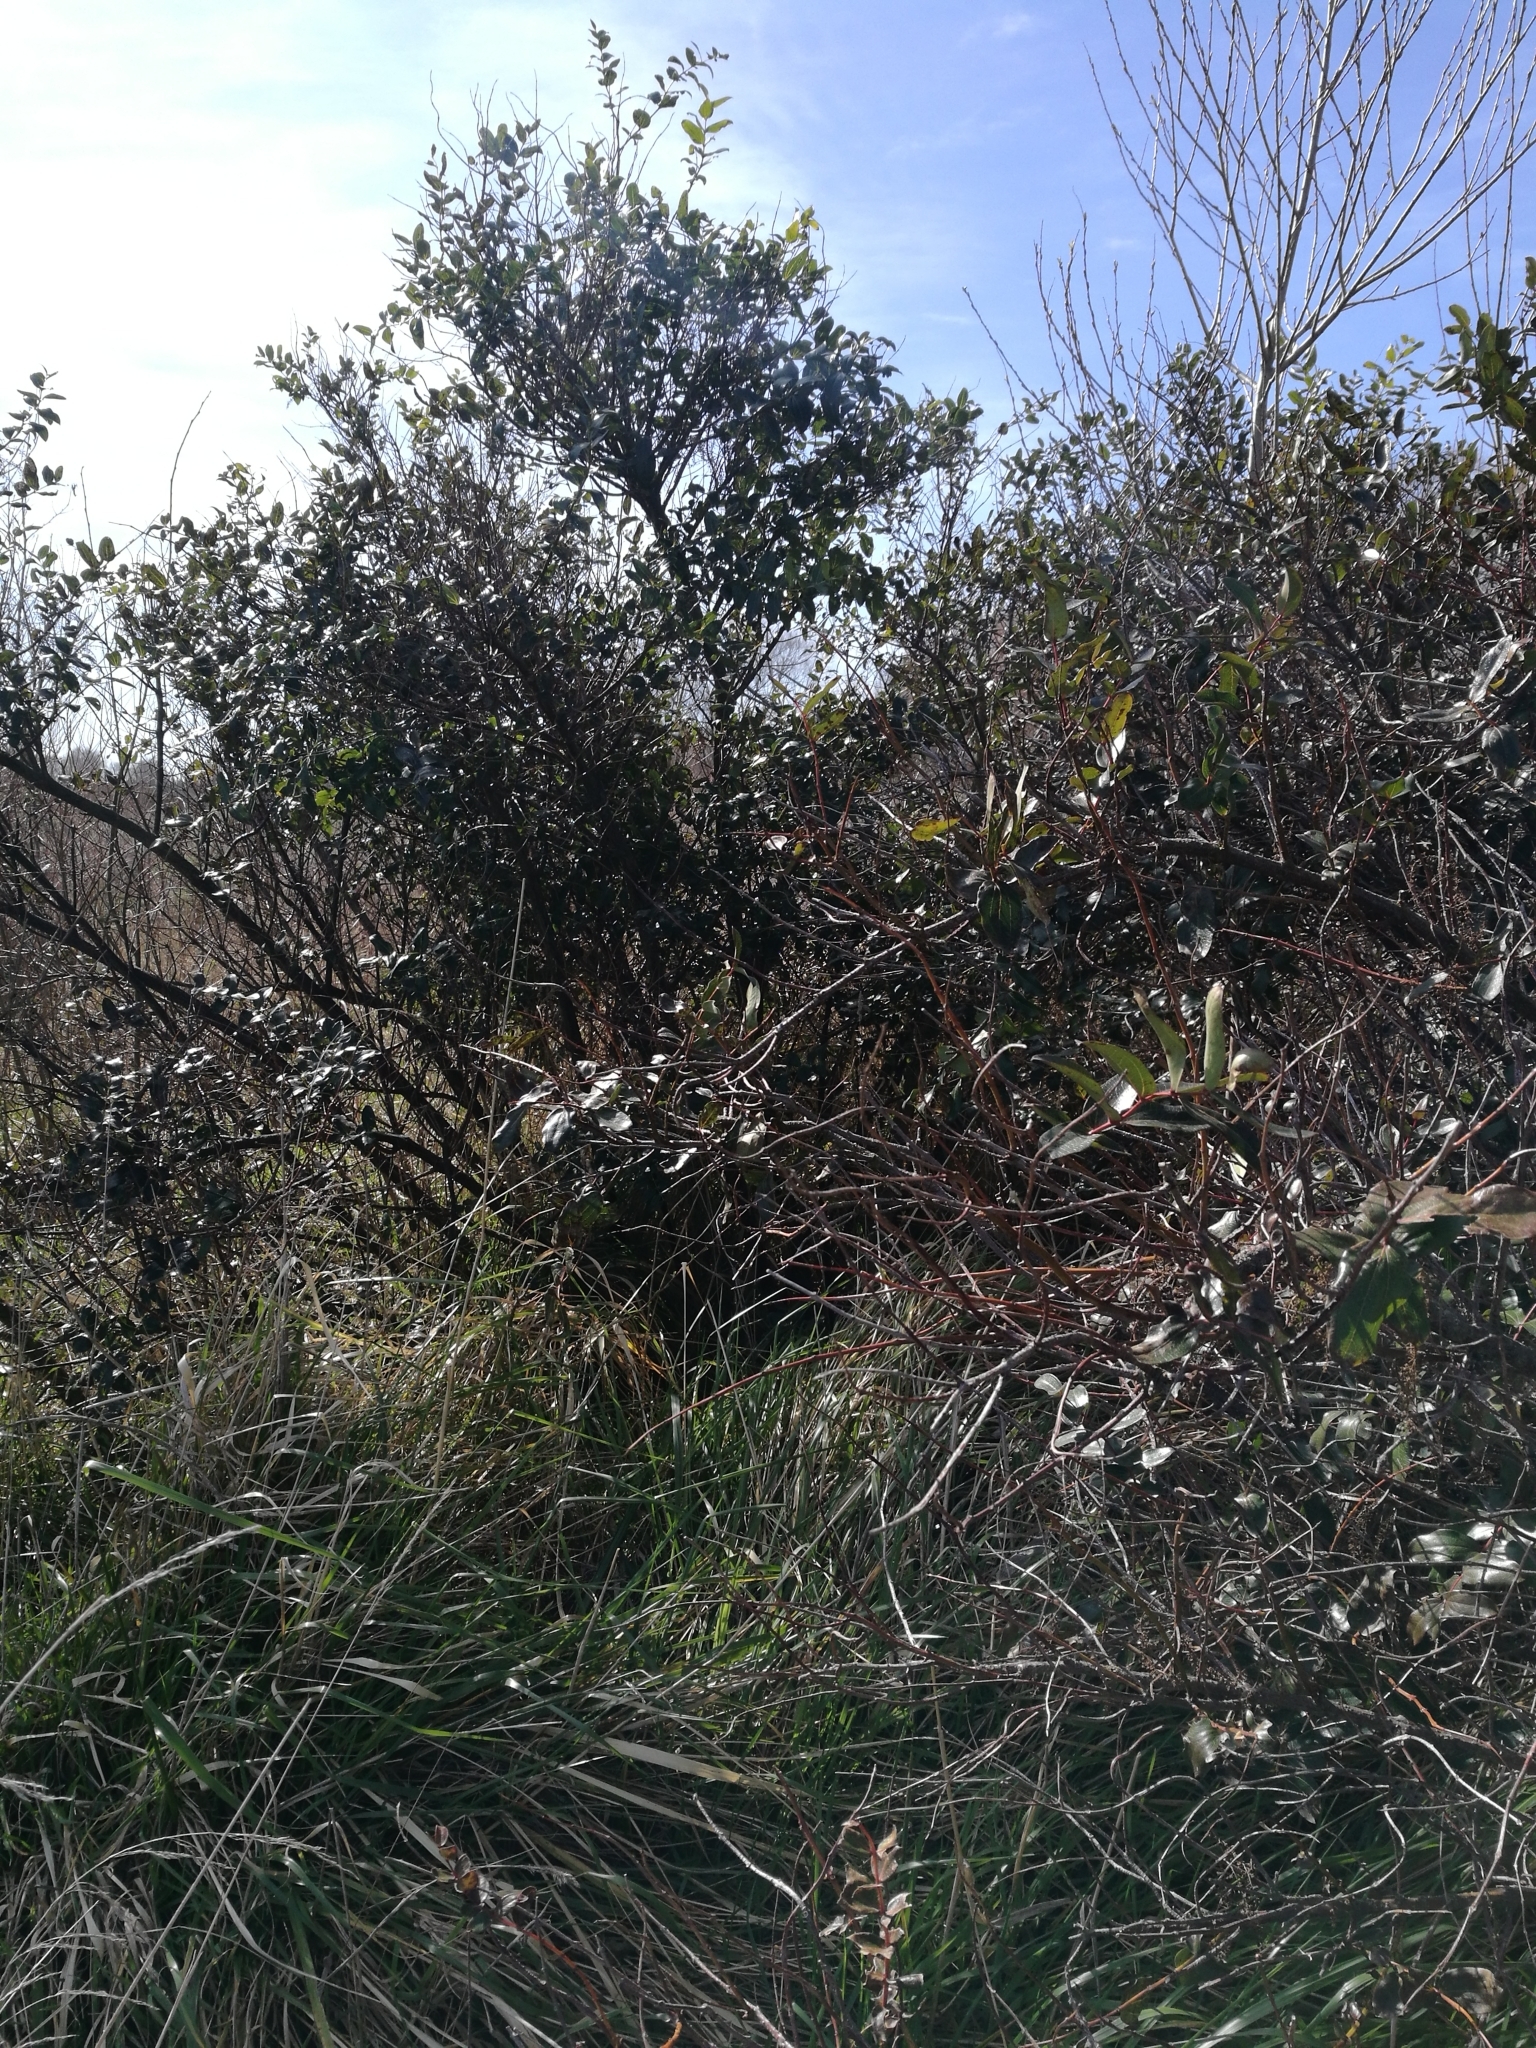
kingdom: Plantae
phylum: Tracheophyta
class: Magnoliopsida
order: Cucurbitales
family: Coriariaceae
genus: Coriaria
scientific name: Coriaria arborea
